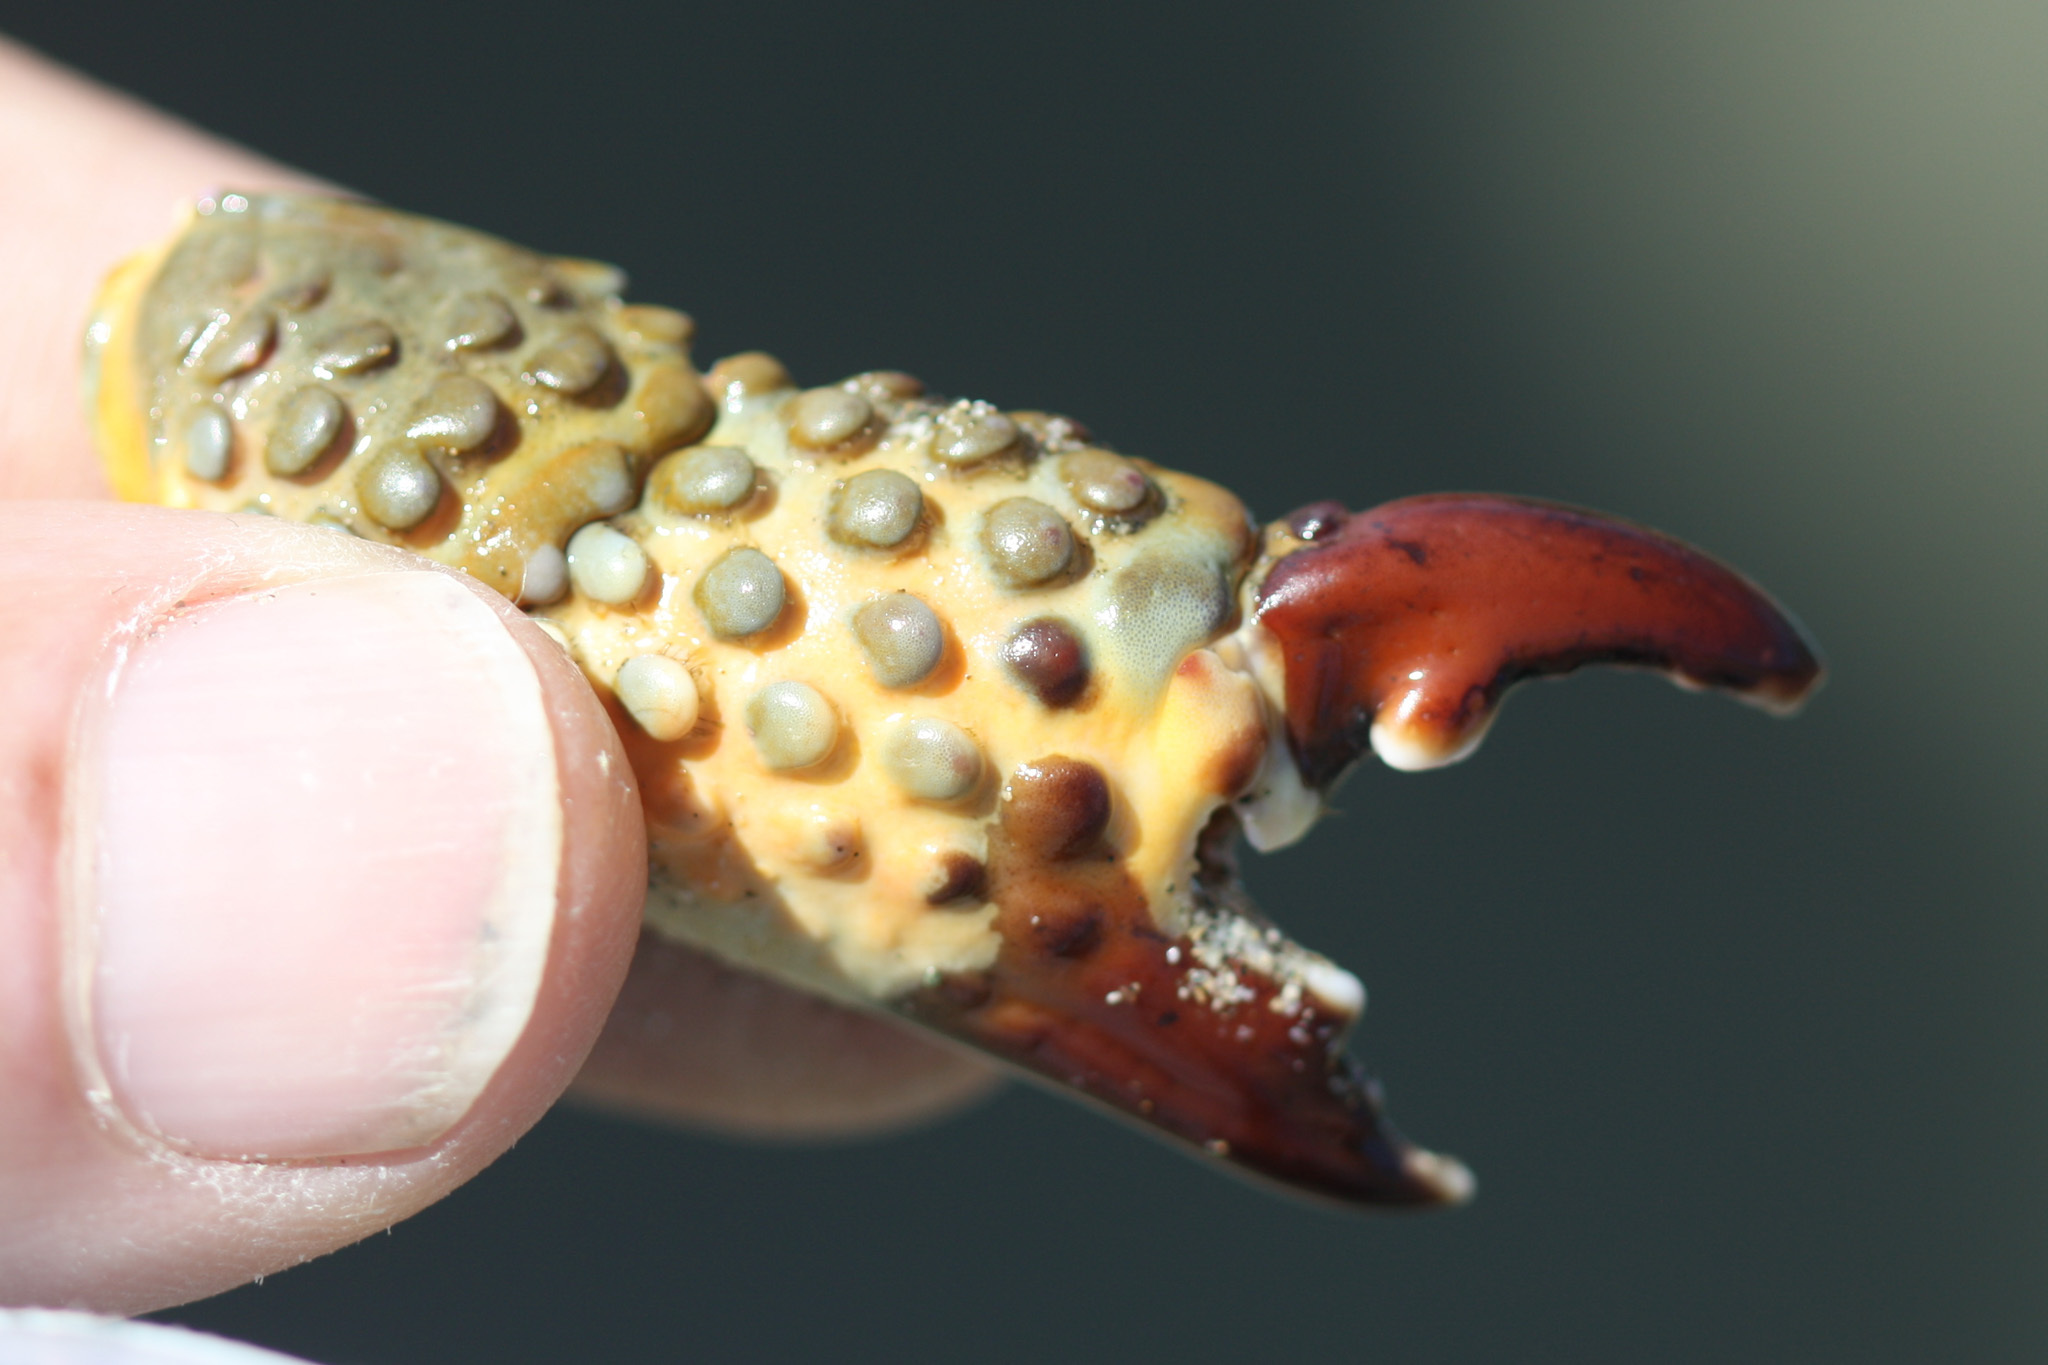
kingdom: Animalia
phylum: Arthropoda
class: Malacostraca
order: Decapoda
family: Eriphiidae
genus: Eriphia
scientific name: Eriphia squamata
